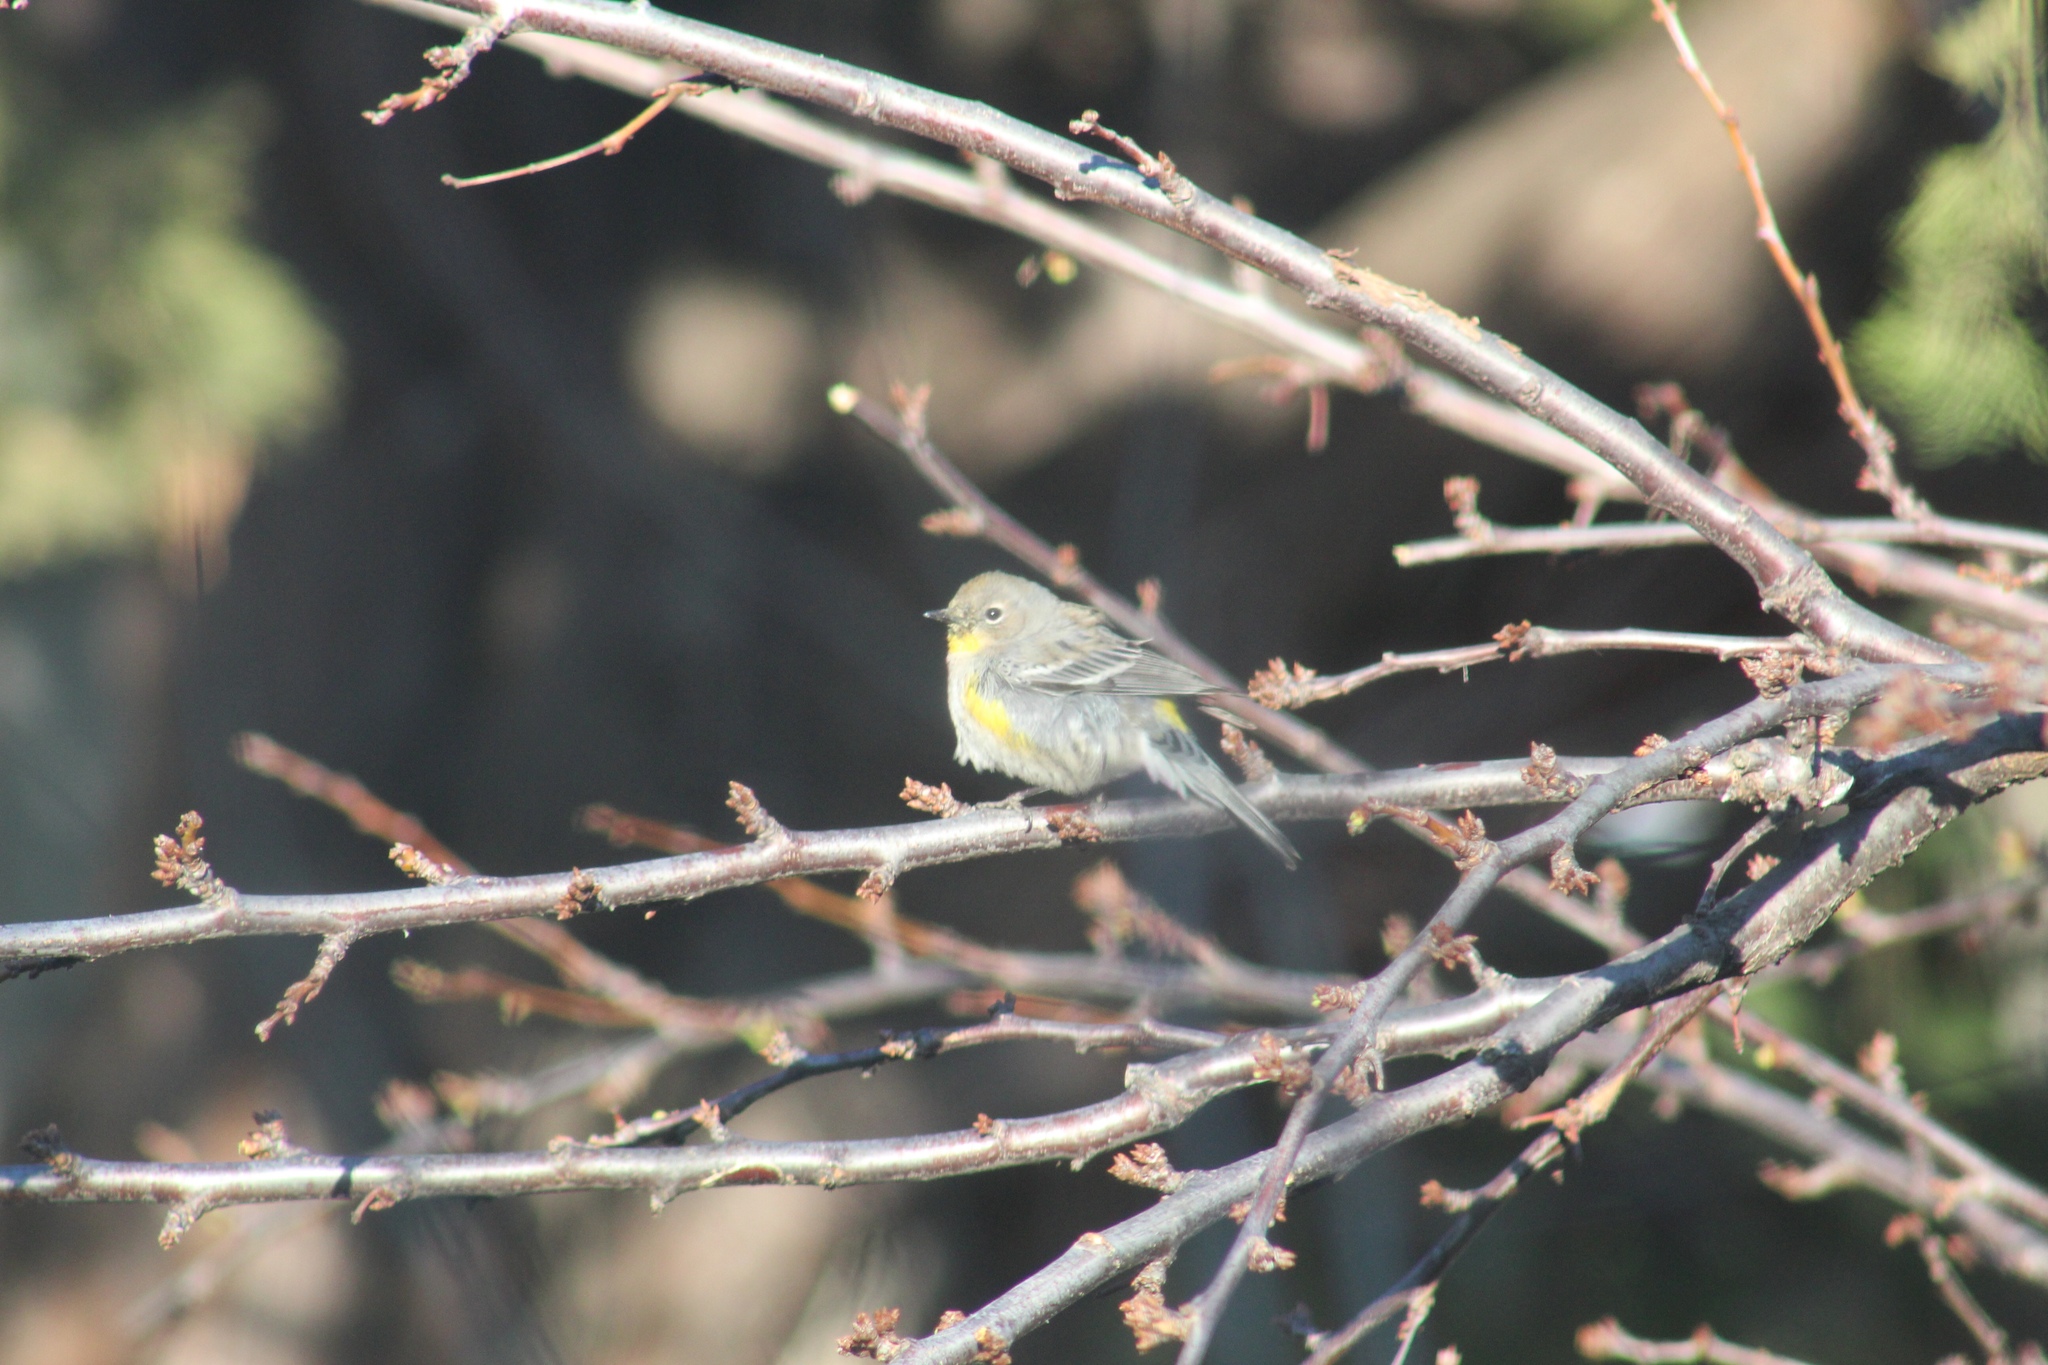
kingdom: Animalia
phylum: Chordata
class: Aves
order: Passeriformes
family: Parulidae
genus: Setophaga
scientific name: Setophaga coronata
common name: Myrtle warbler
